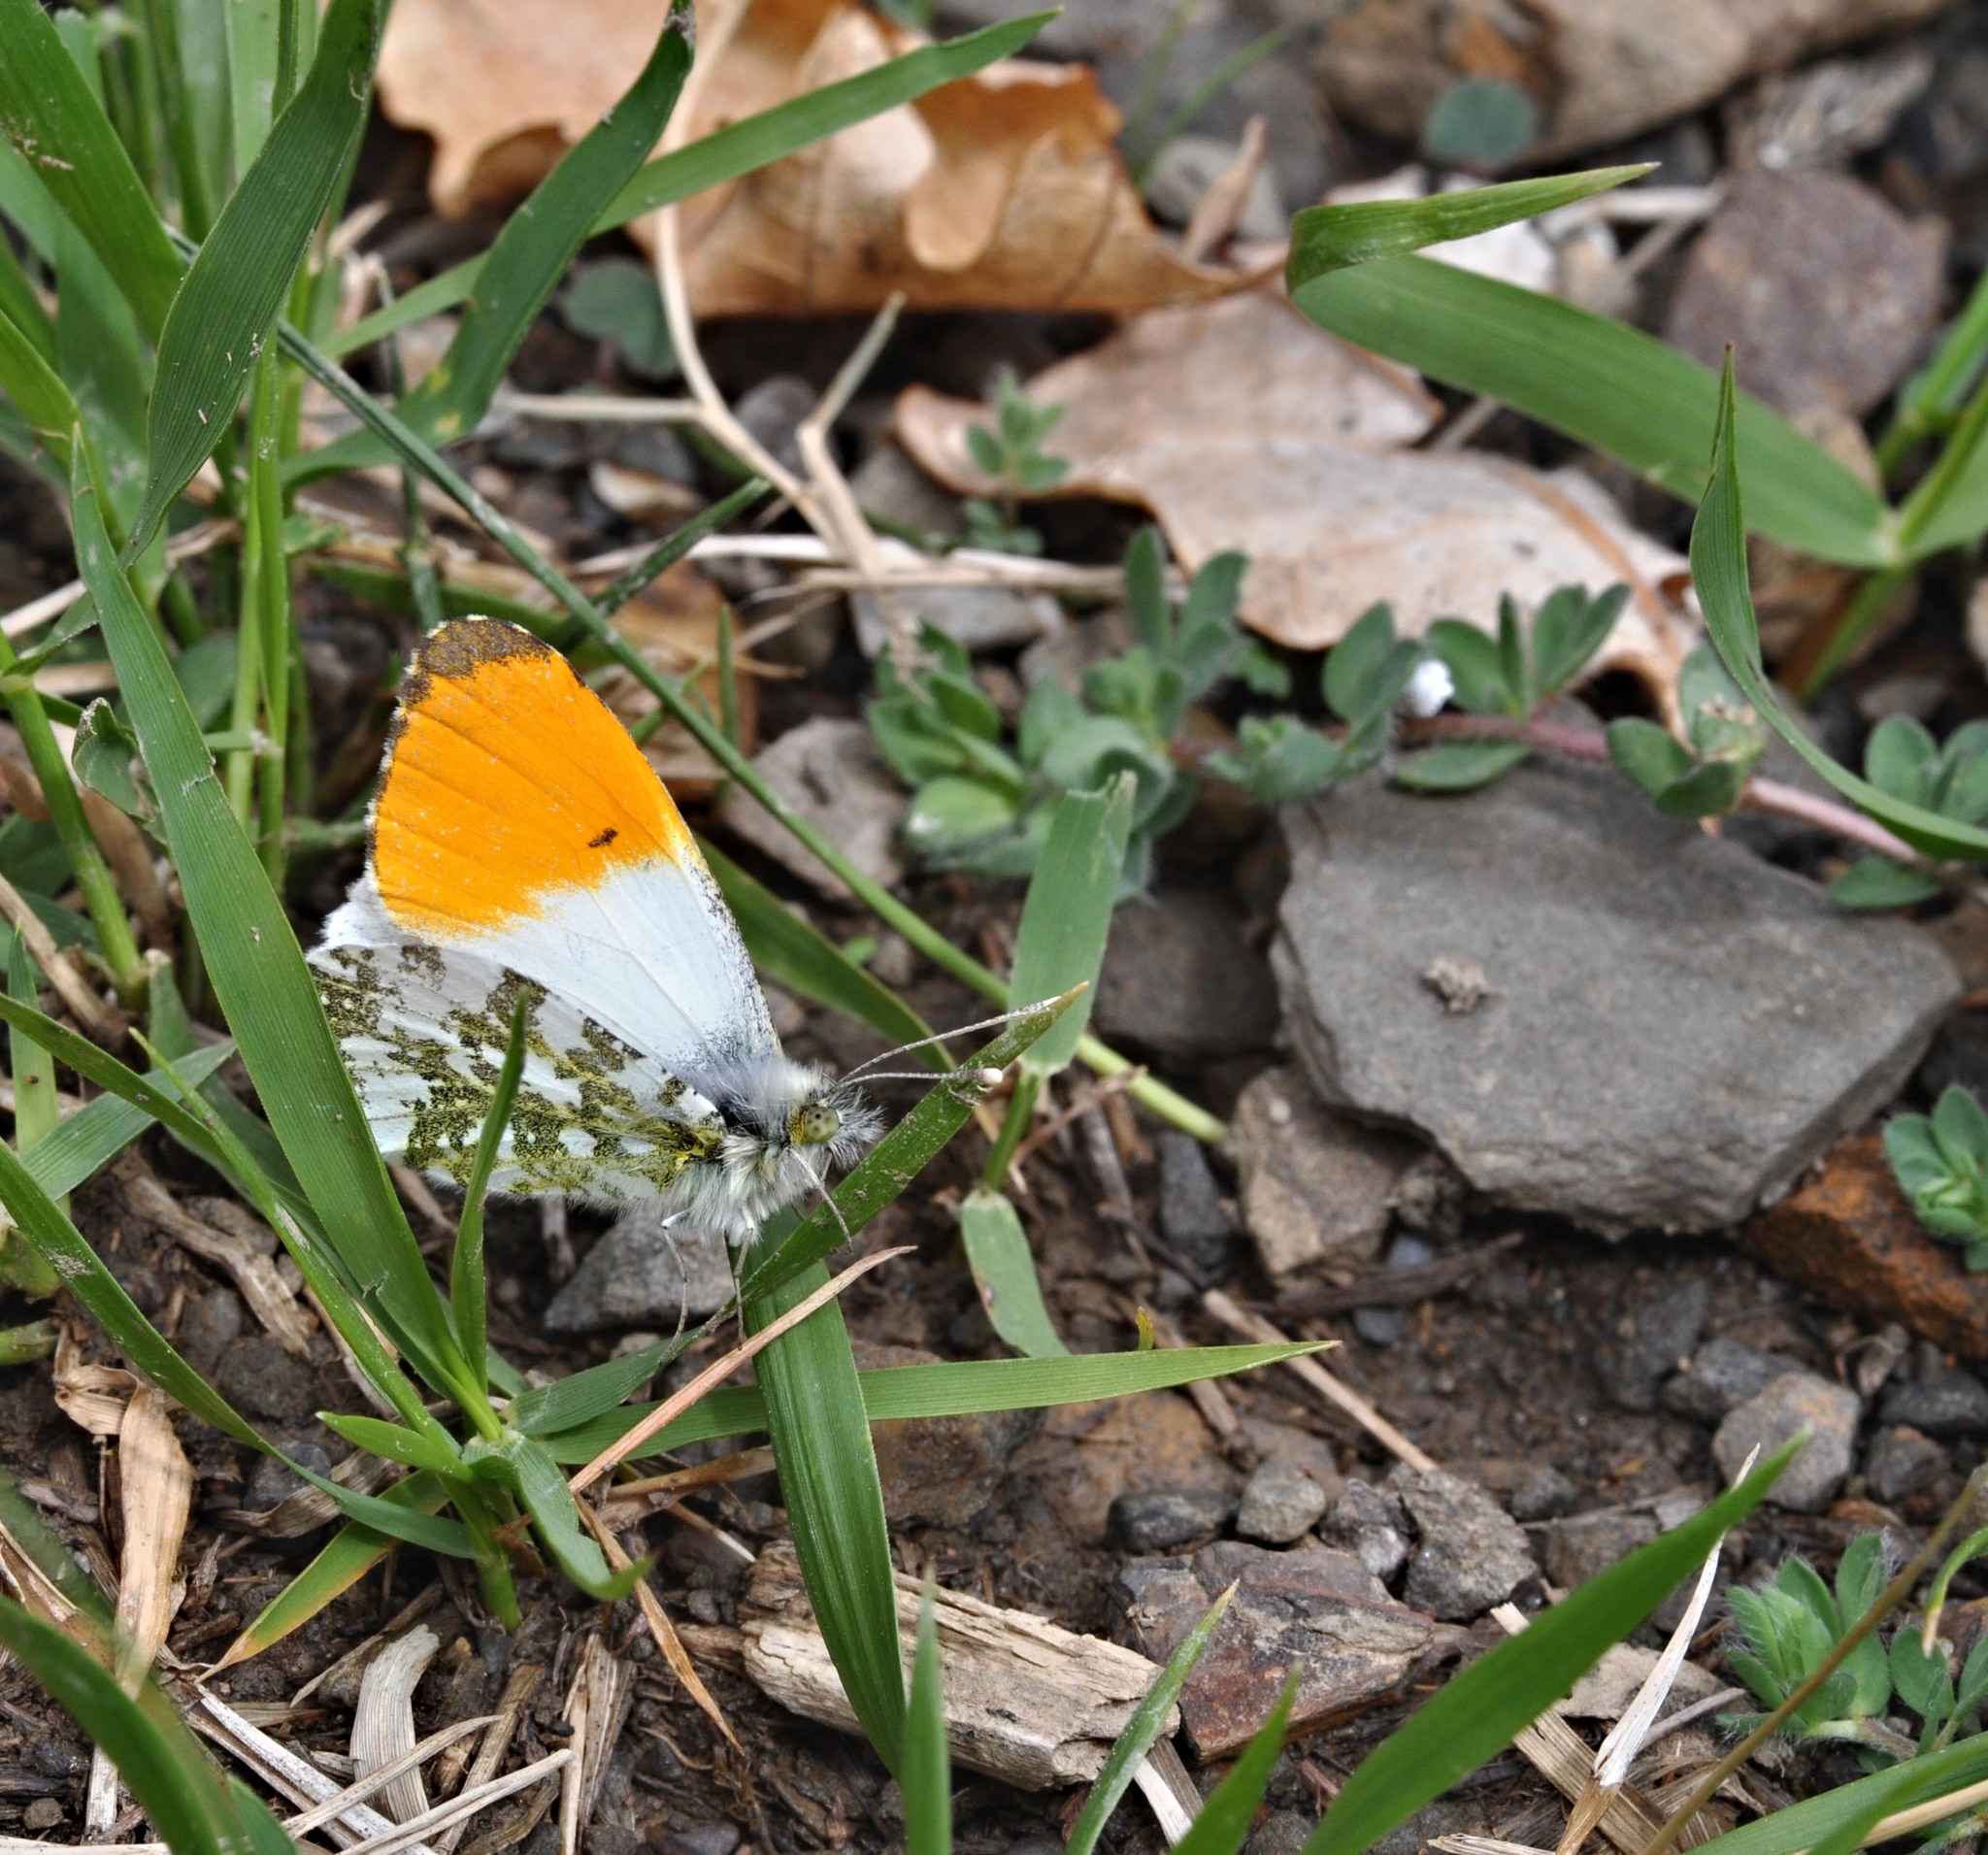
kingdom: Animalia
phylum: Arthropoda
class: Insecta
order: Lepidoptera
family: Pieridae
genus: Anthocharis
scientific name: Anthocharis cardamines
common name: Orange-tip
